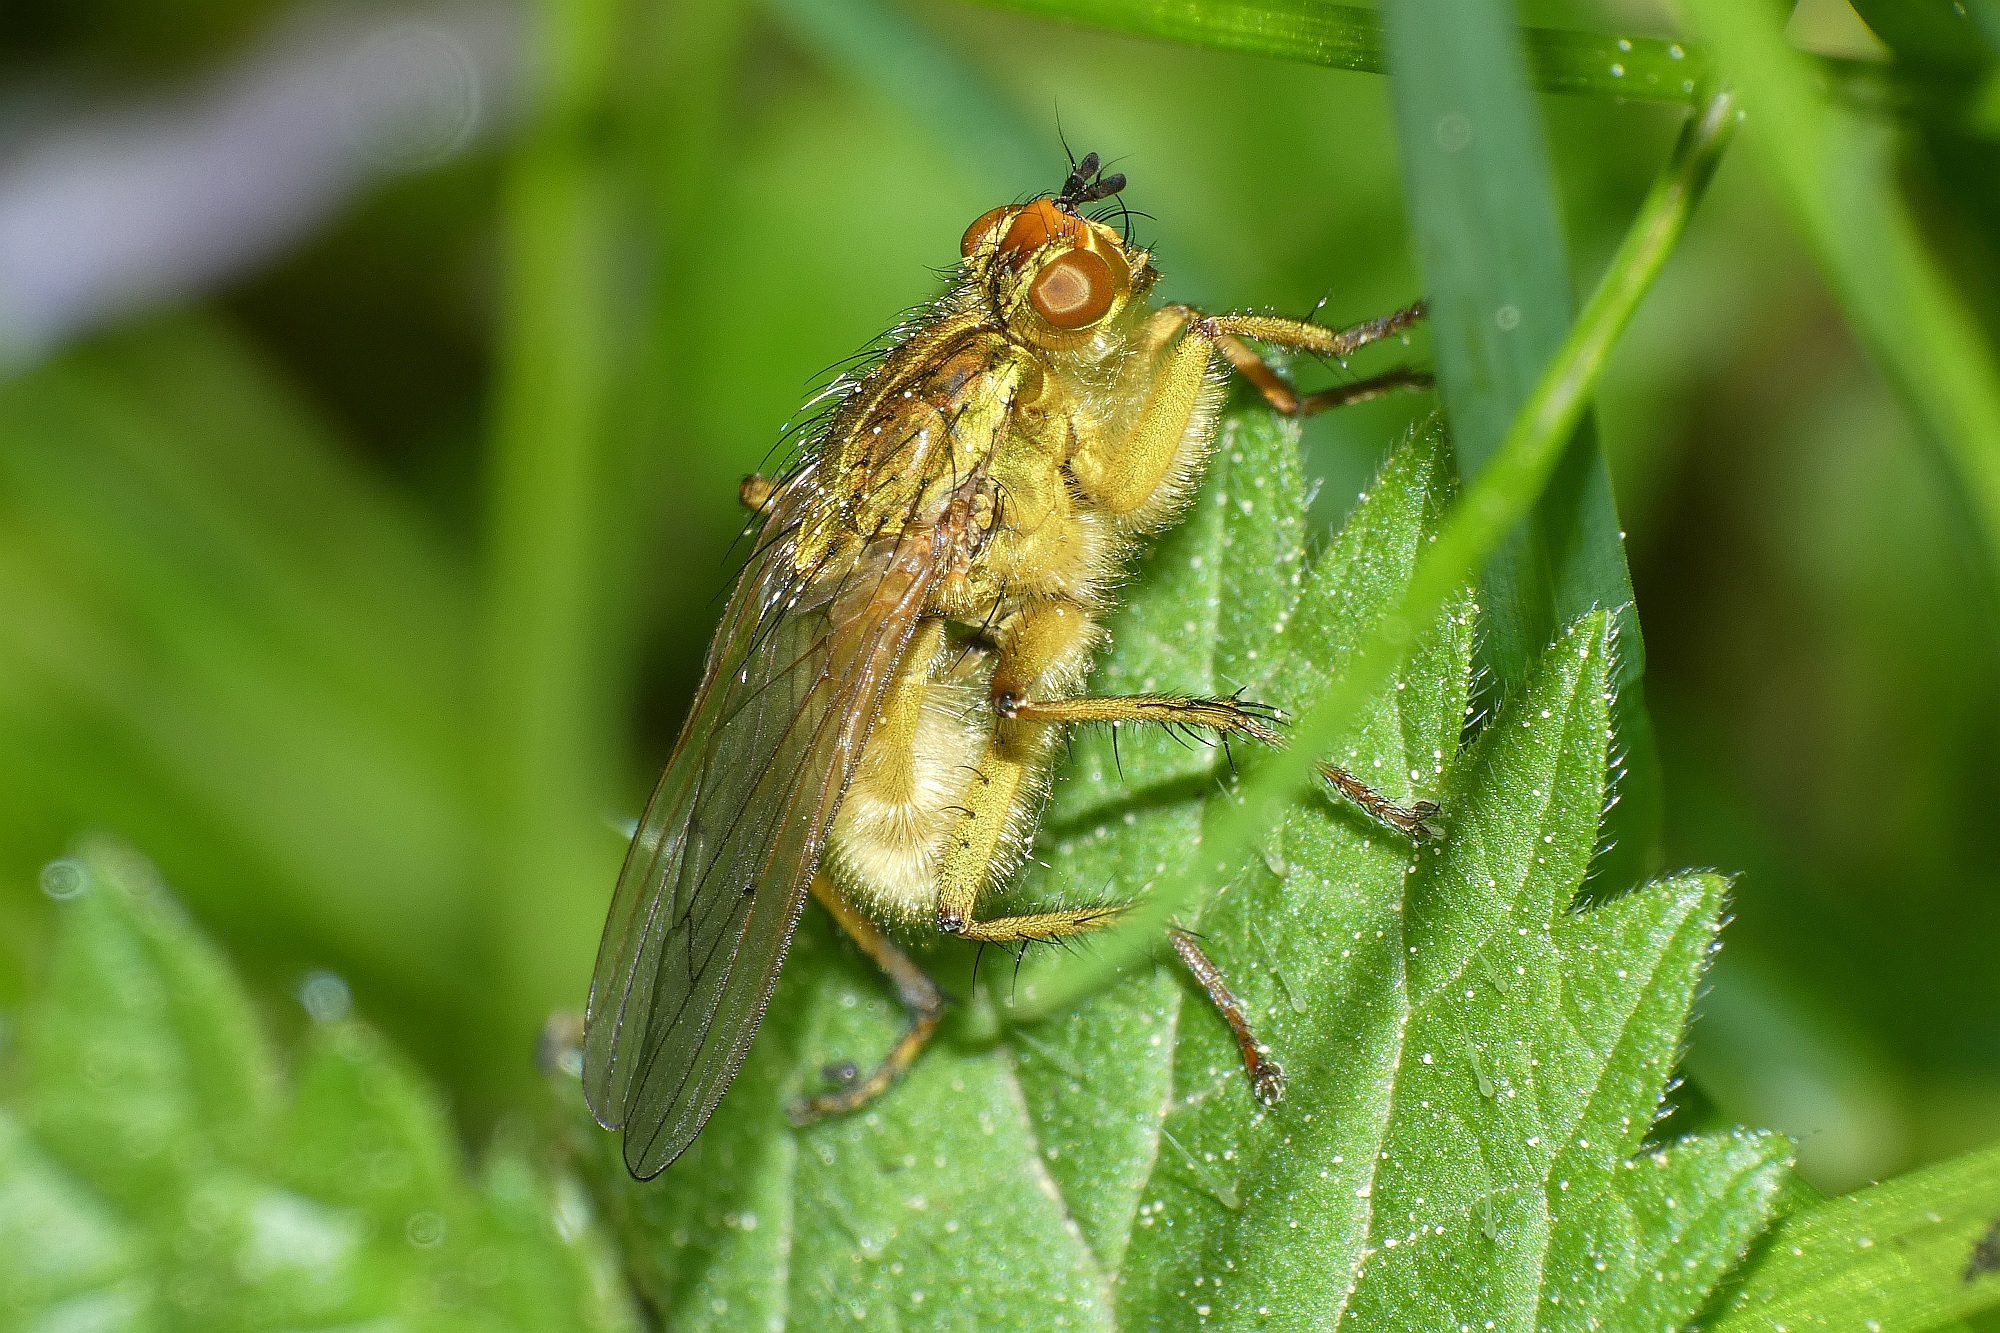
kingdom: Animalia
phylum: Arthropoda
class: Insecta
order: Diptera
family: Scathophagidae
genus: Scathophaga
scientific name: Scathophaga stercoraria
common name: Yellow dung fly
